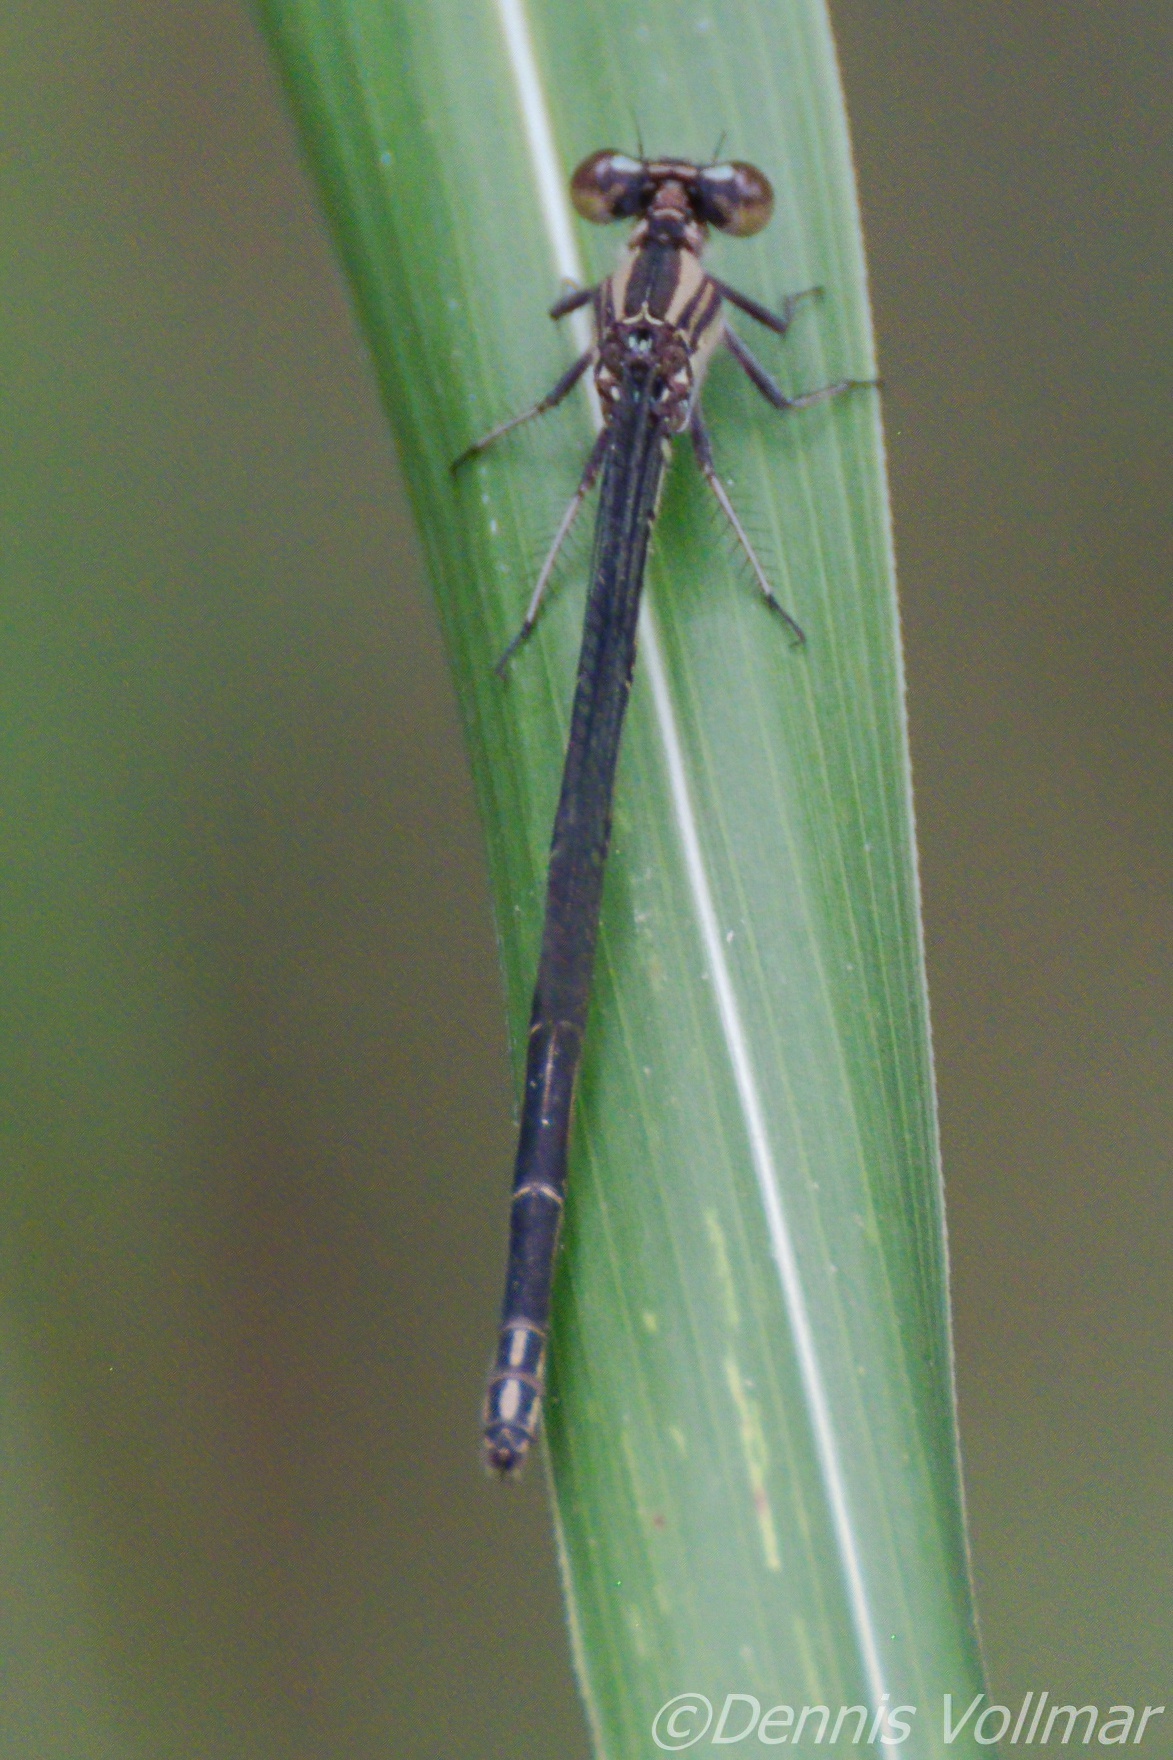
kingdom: Animalia
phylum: Arthropoda
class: Insecta
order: Odonata
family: Coenagrionidae
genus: Argia
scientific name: Argia translata
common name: Dusky dancer
